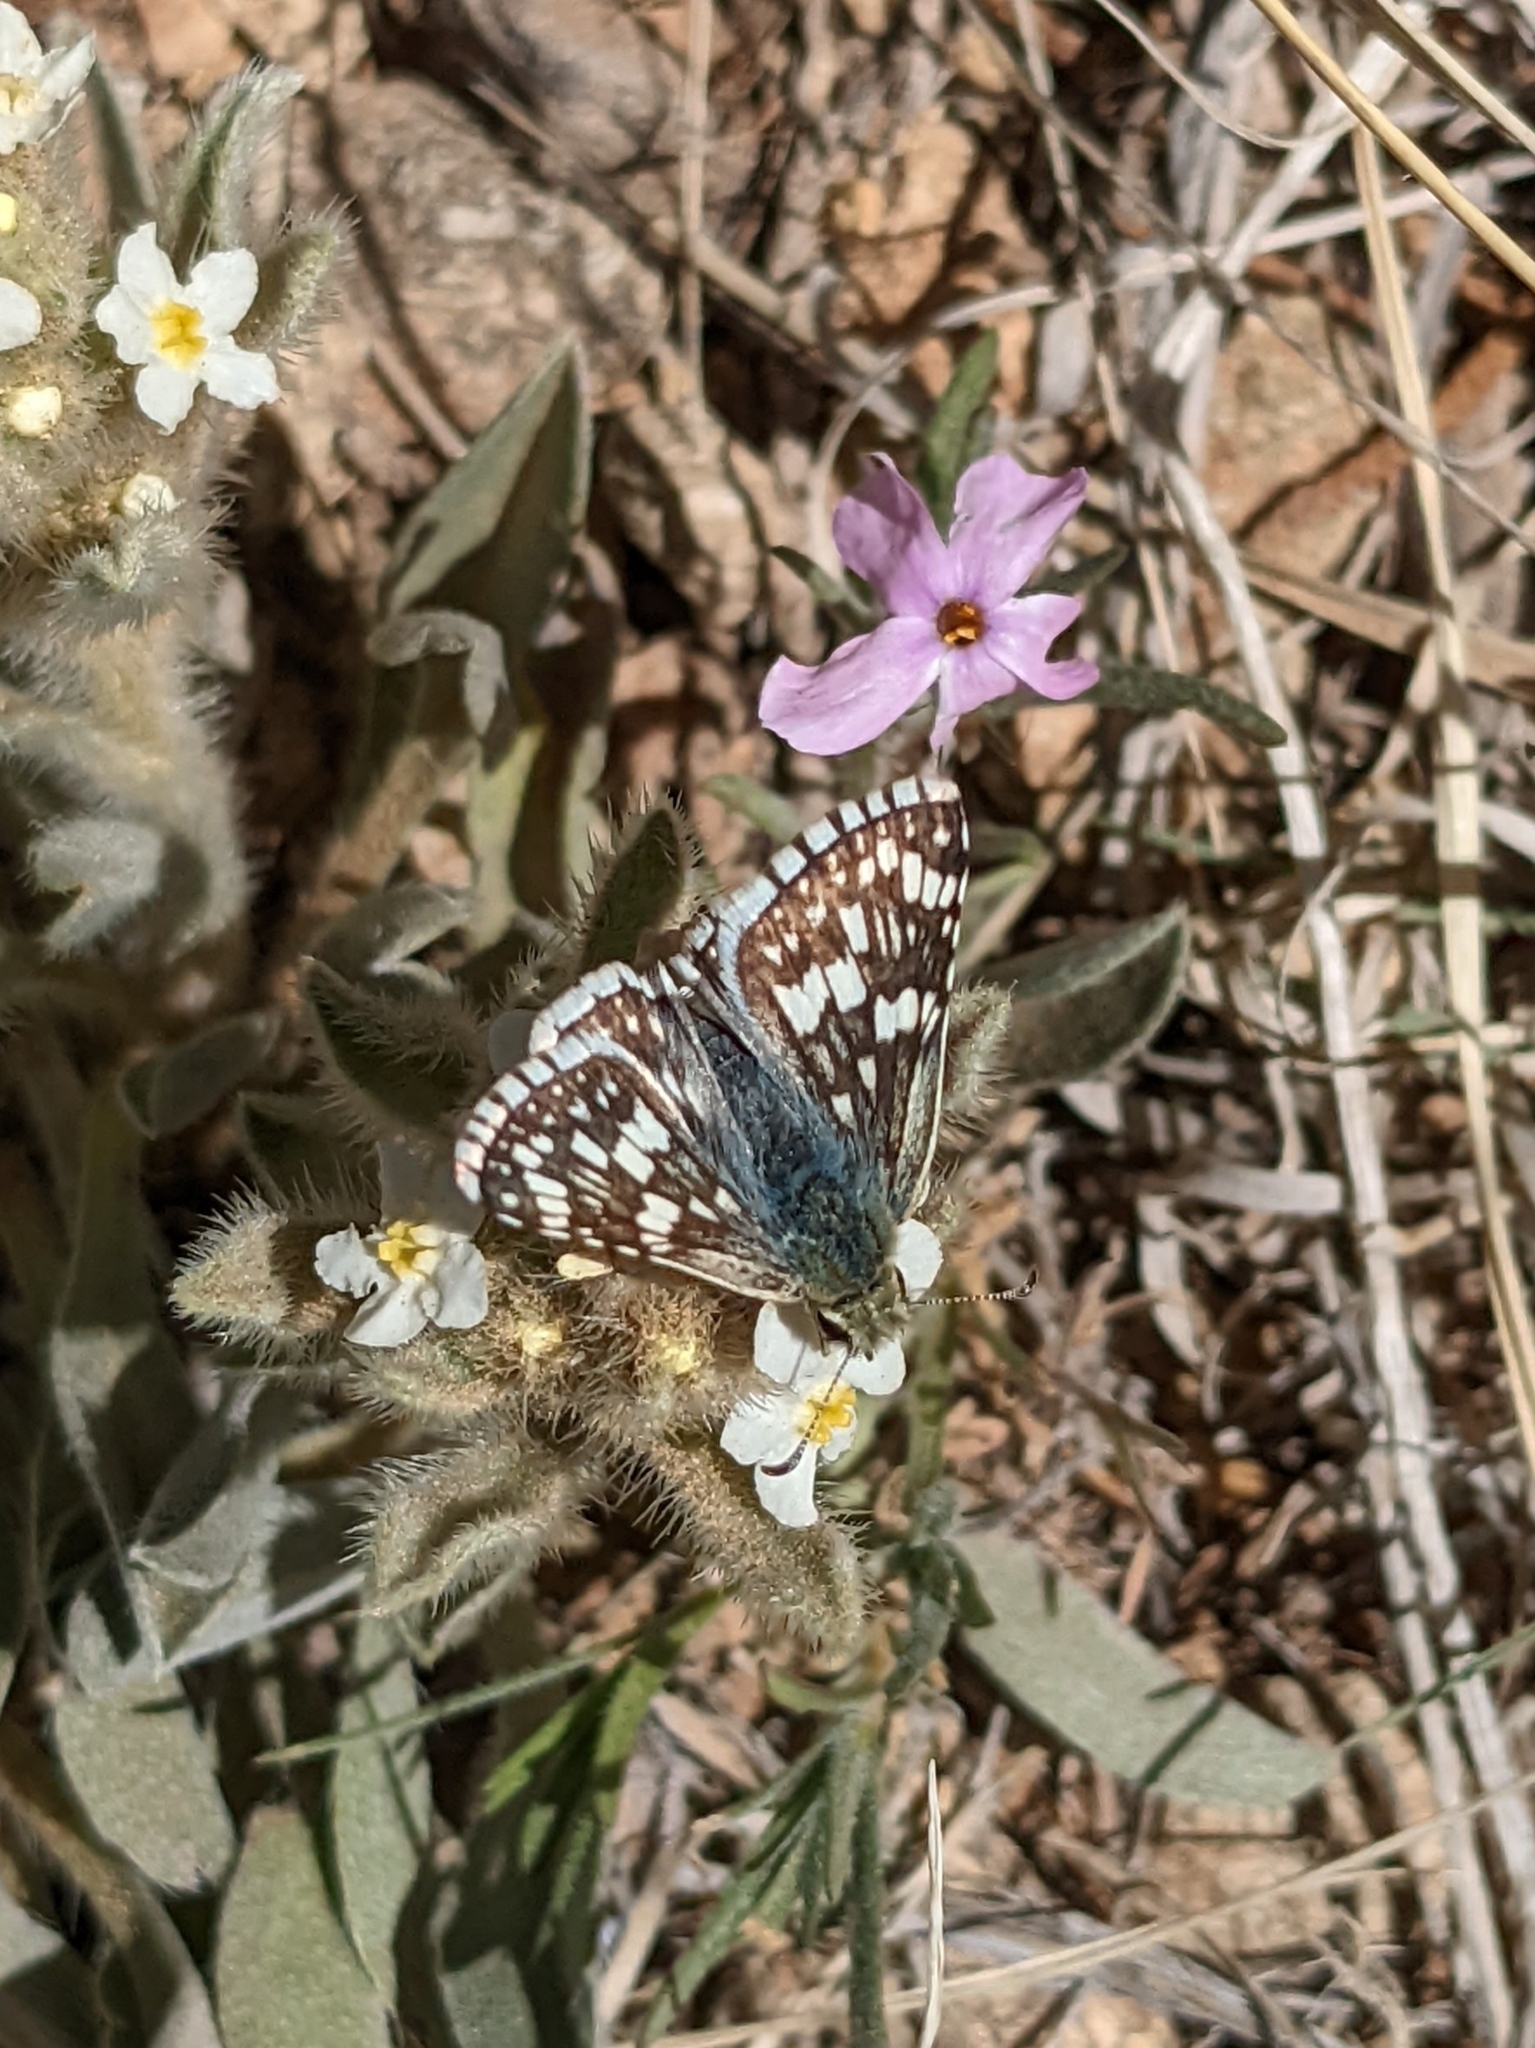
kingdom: Animalia
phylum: Arthropoda
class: Insecta
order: Lepidoptera
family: Hesperiidae
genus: Burnsius
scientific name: Burnsius communis
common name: Common checkered-skipper
